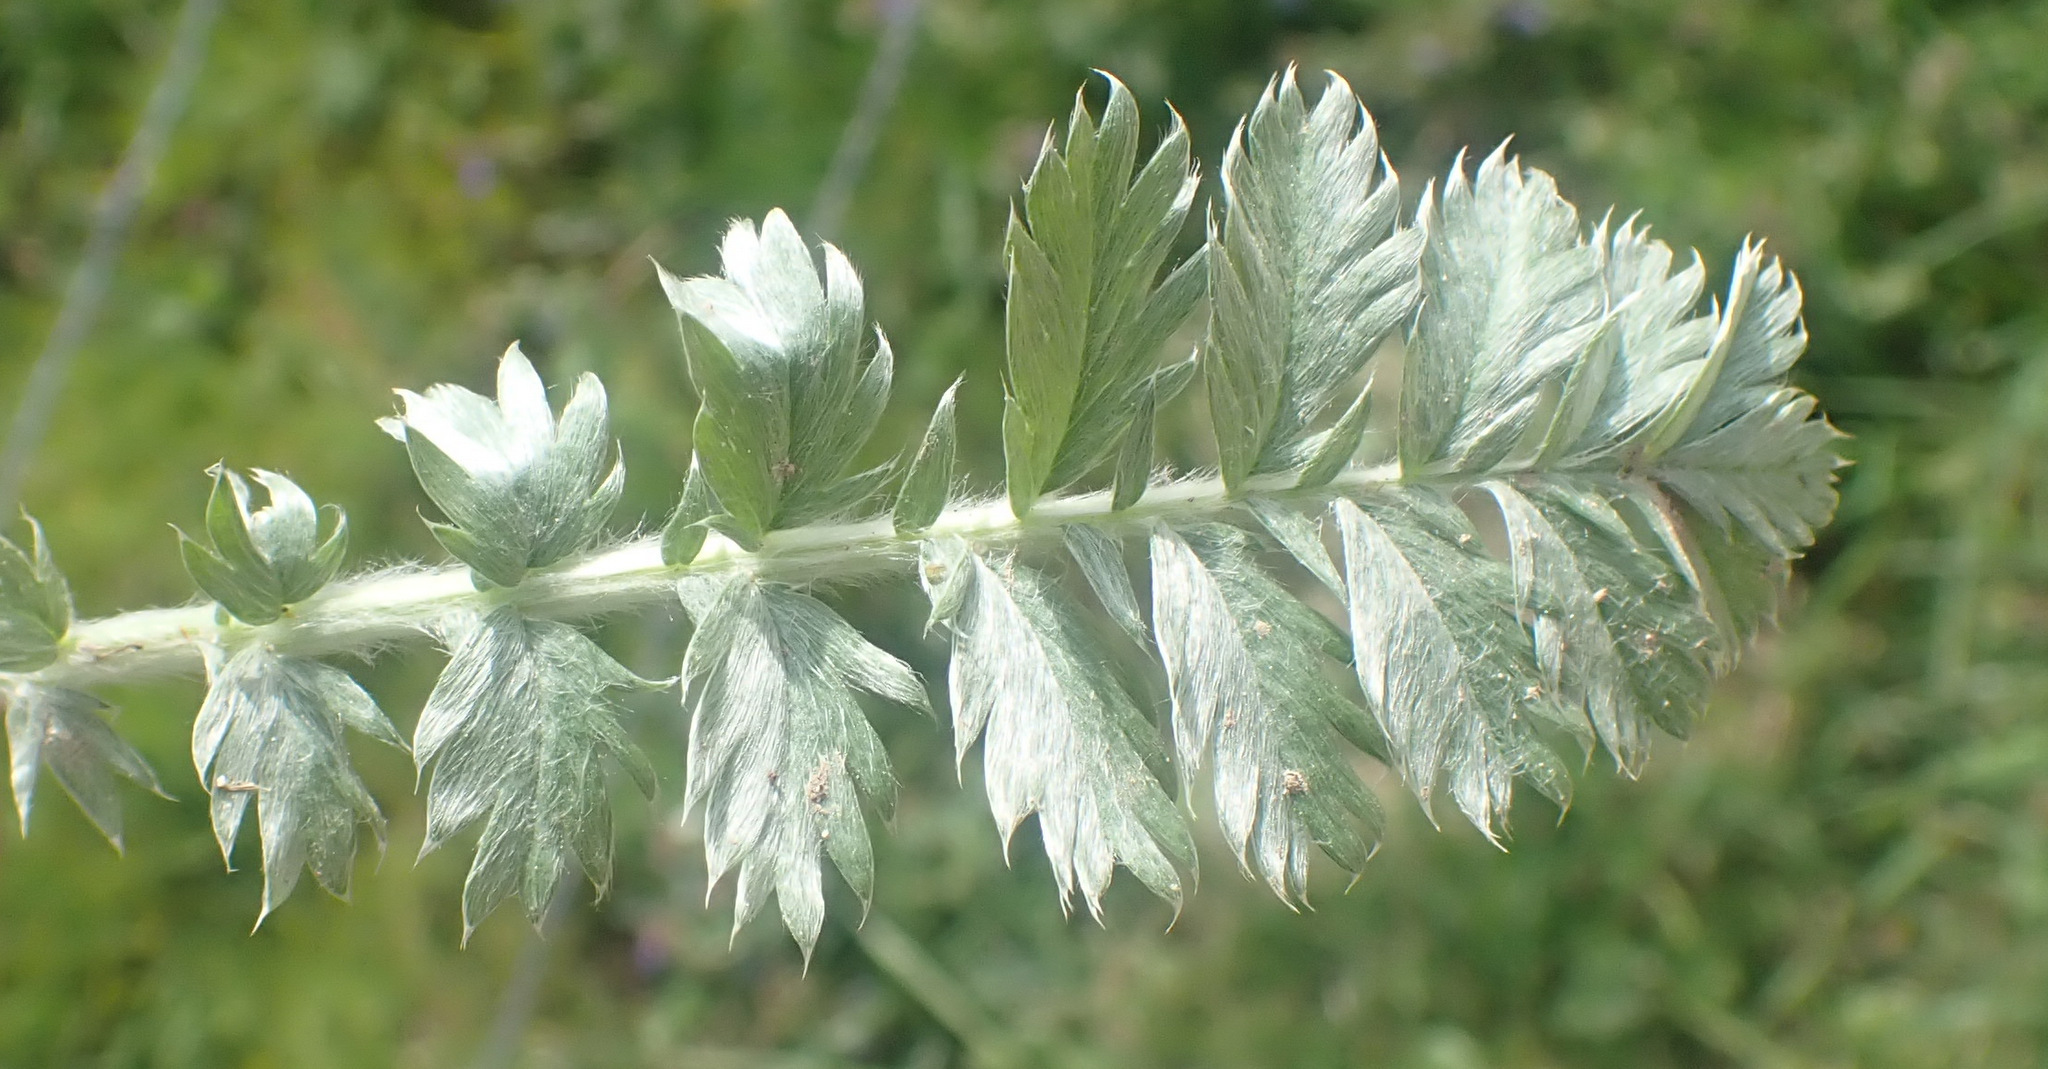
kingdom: Plantae
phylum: Tracheophyta
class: Magnoliopsida
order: Rosales
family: Rosaceae
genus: Argentina
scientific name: Argentina anserina
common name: Common silverweed
